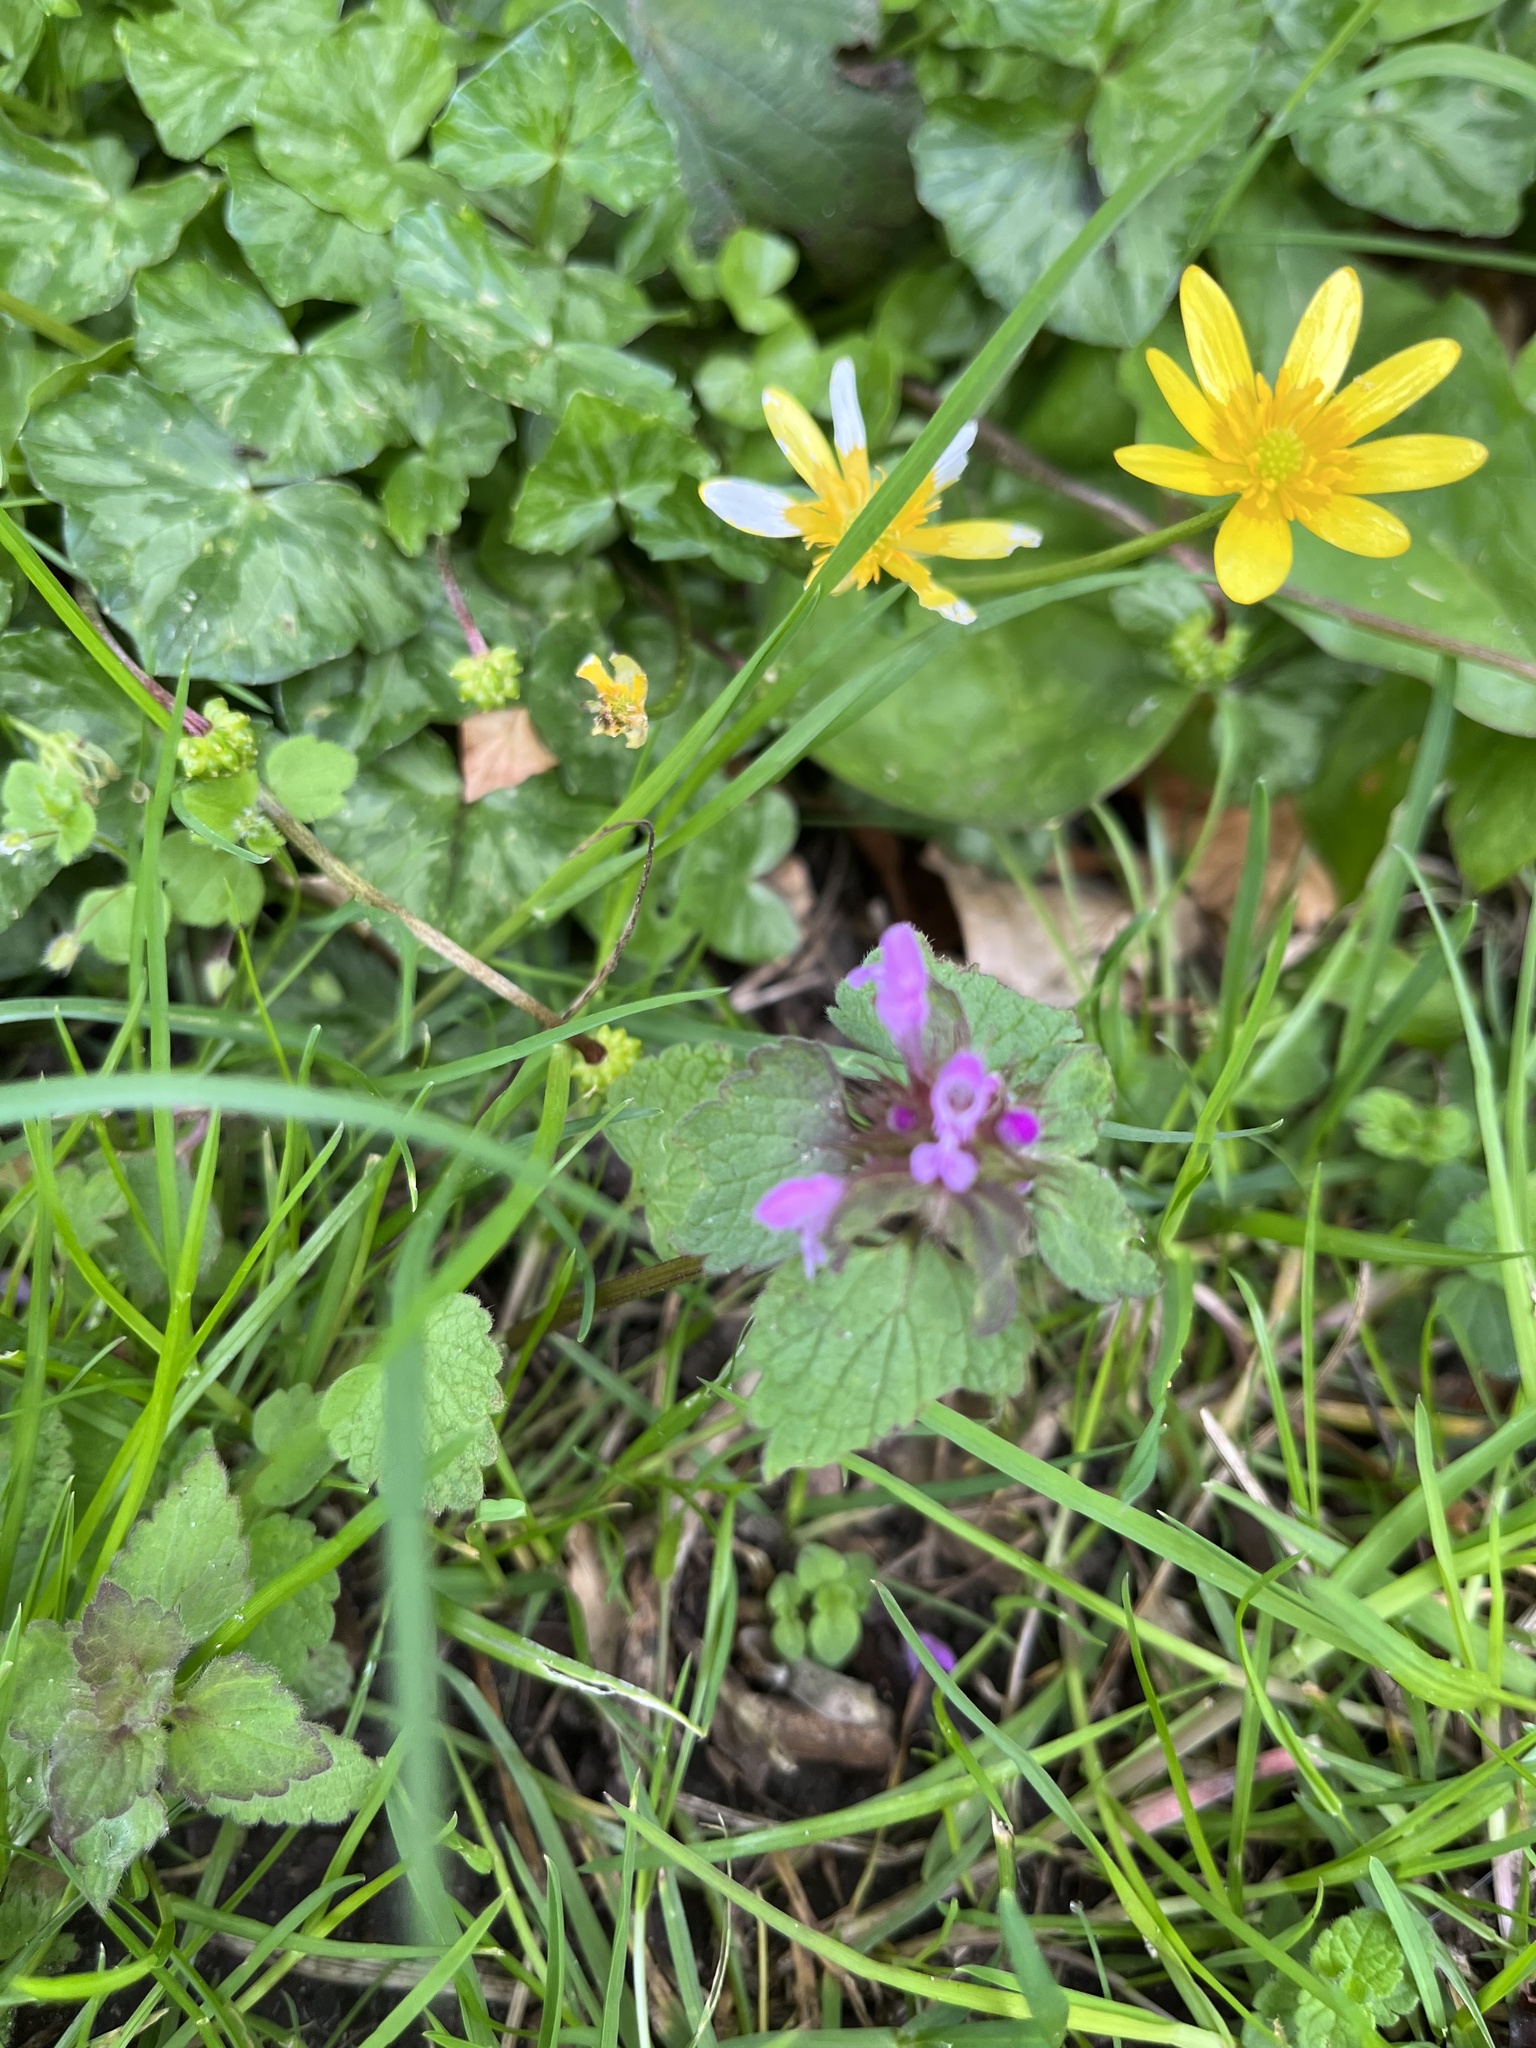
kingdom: Plantae
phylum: Tracheophyta
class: Magnoliopsida
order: Lamiales
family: Lamiaceae
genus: Lamium
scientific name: Lamium purpureum
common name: Red dead-nettle
